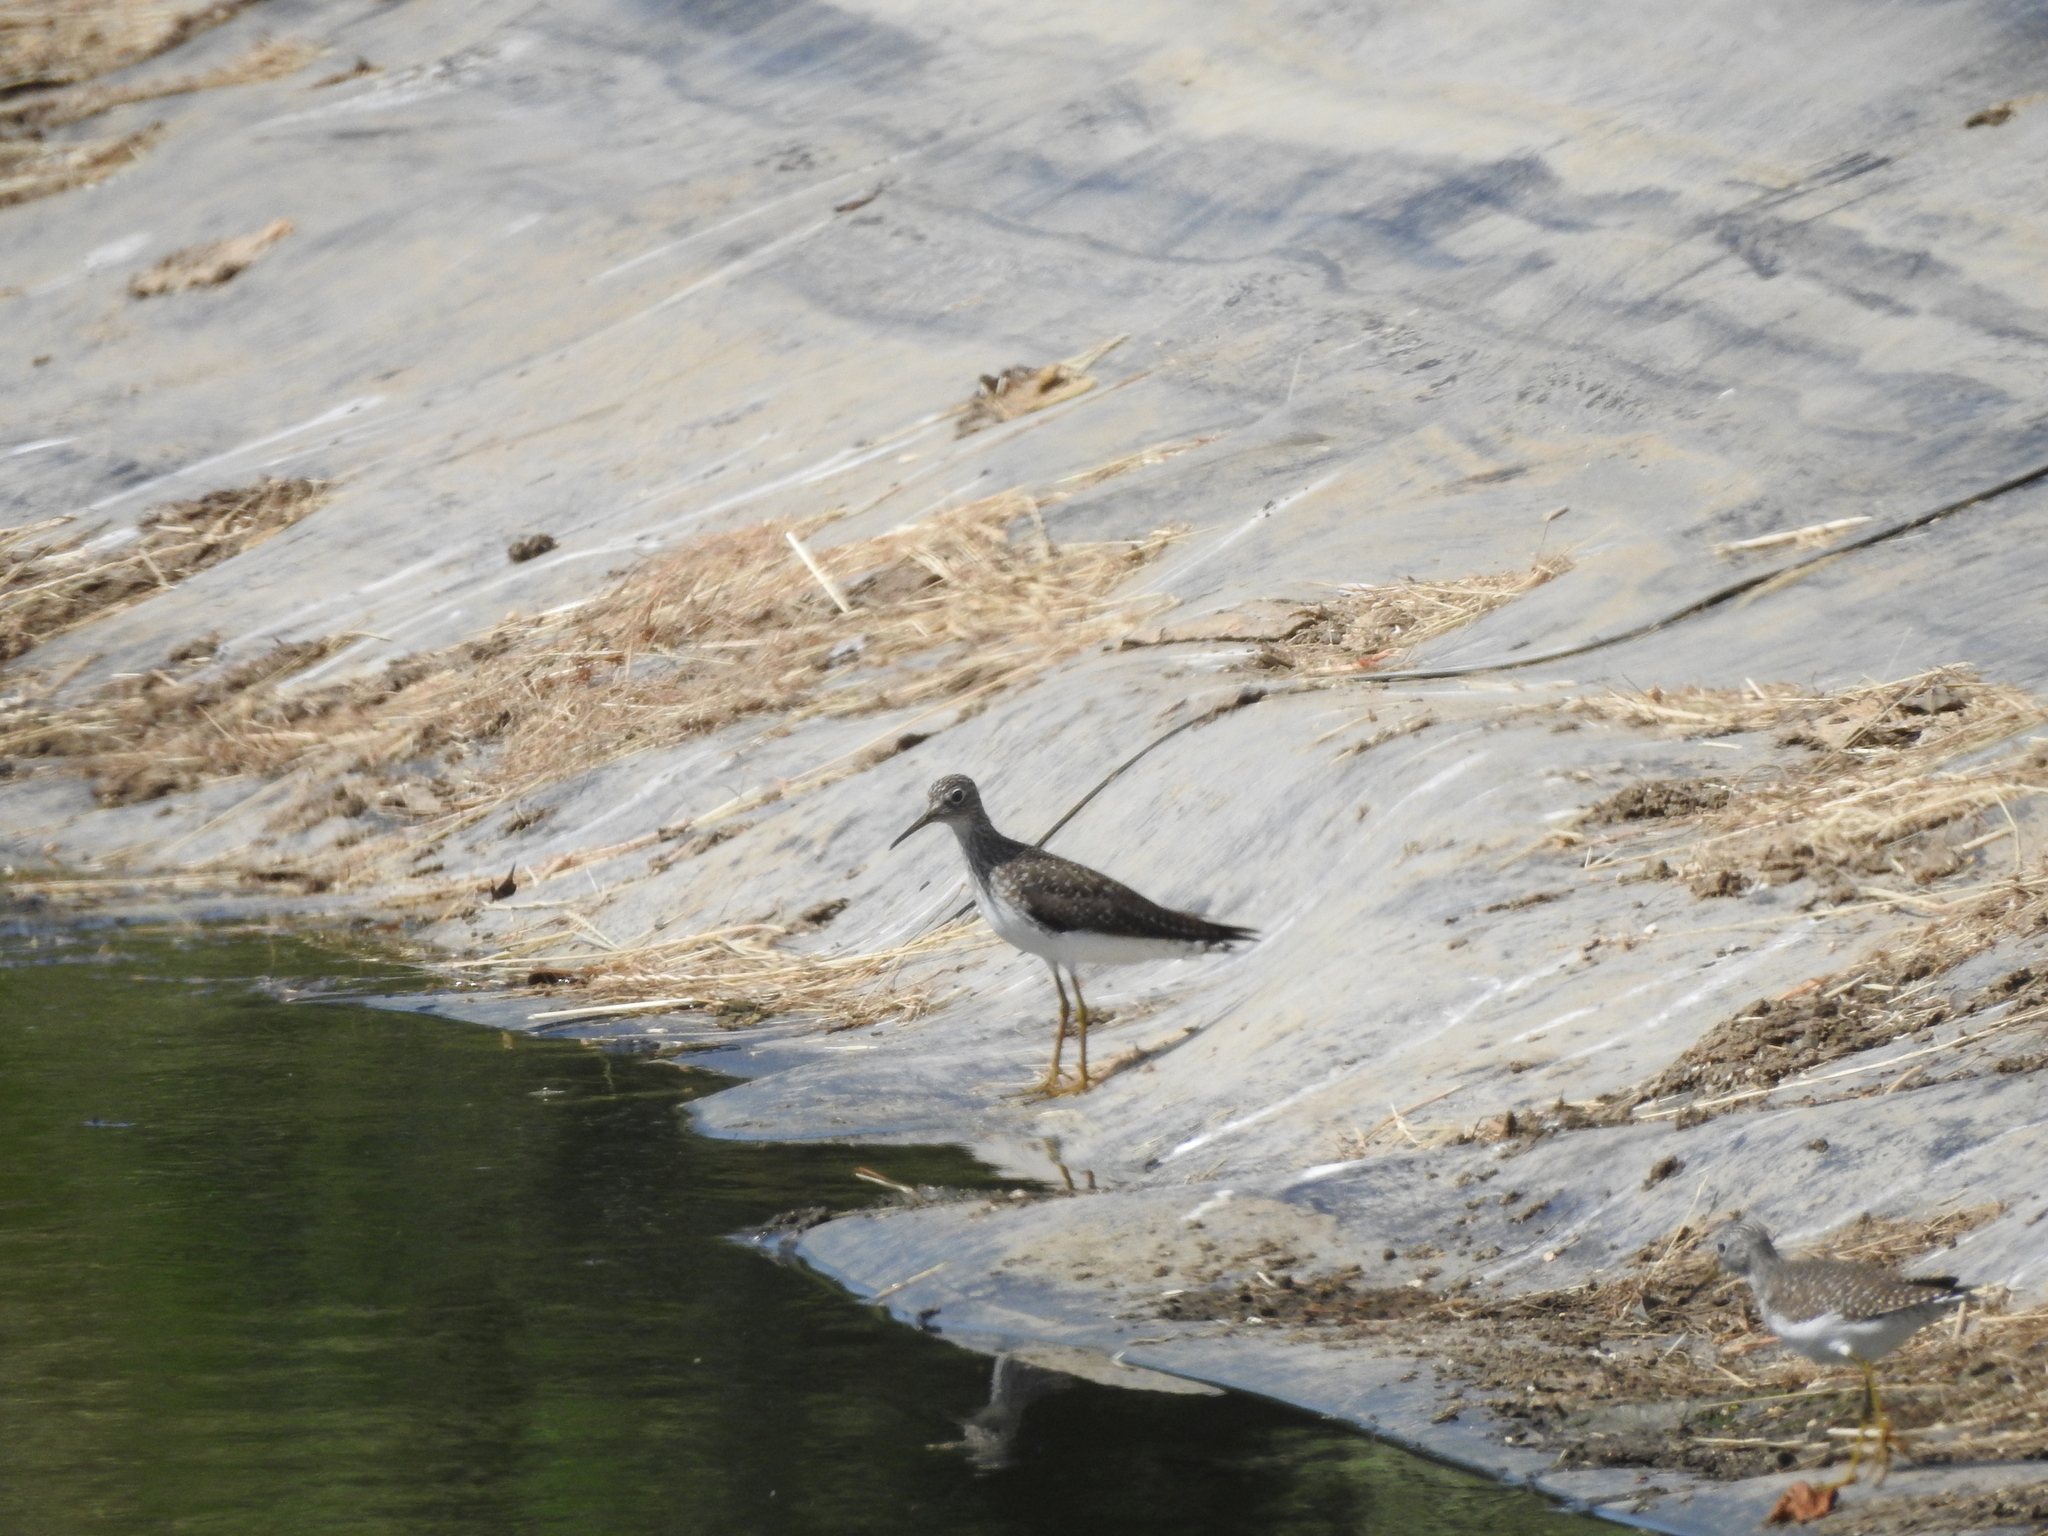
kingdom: Animalia
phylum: Chordata
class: Aves
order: Charadriiformes
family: Scolopacidae
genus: Tringa
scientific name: Tringa solitaria
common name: Solitary sandpiper
